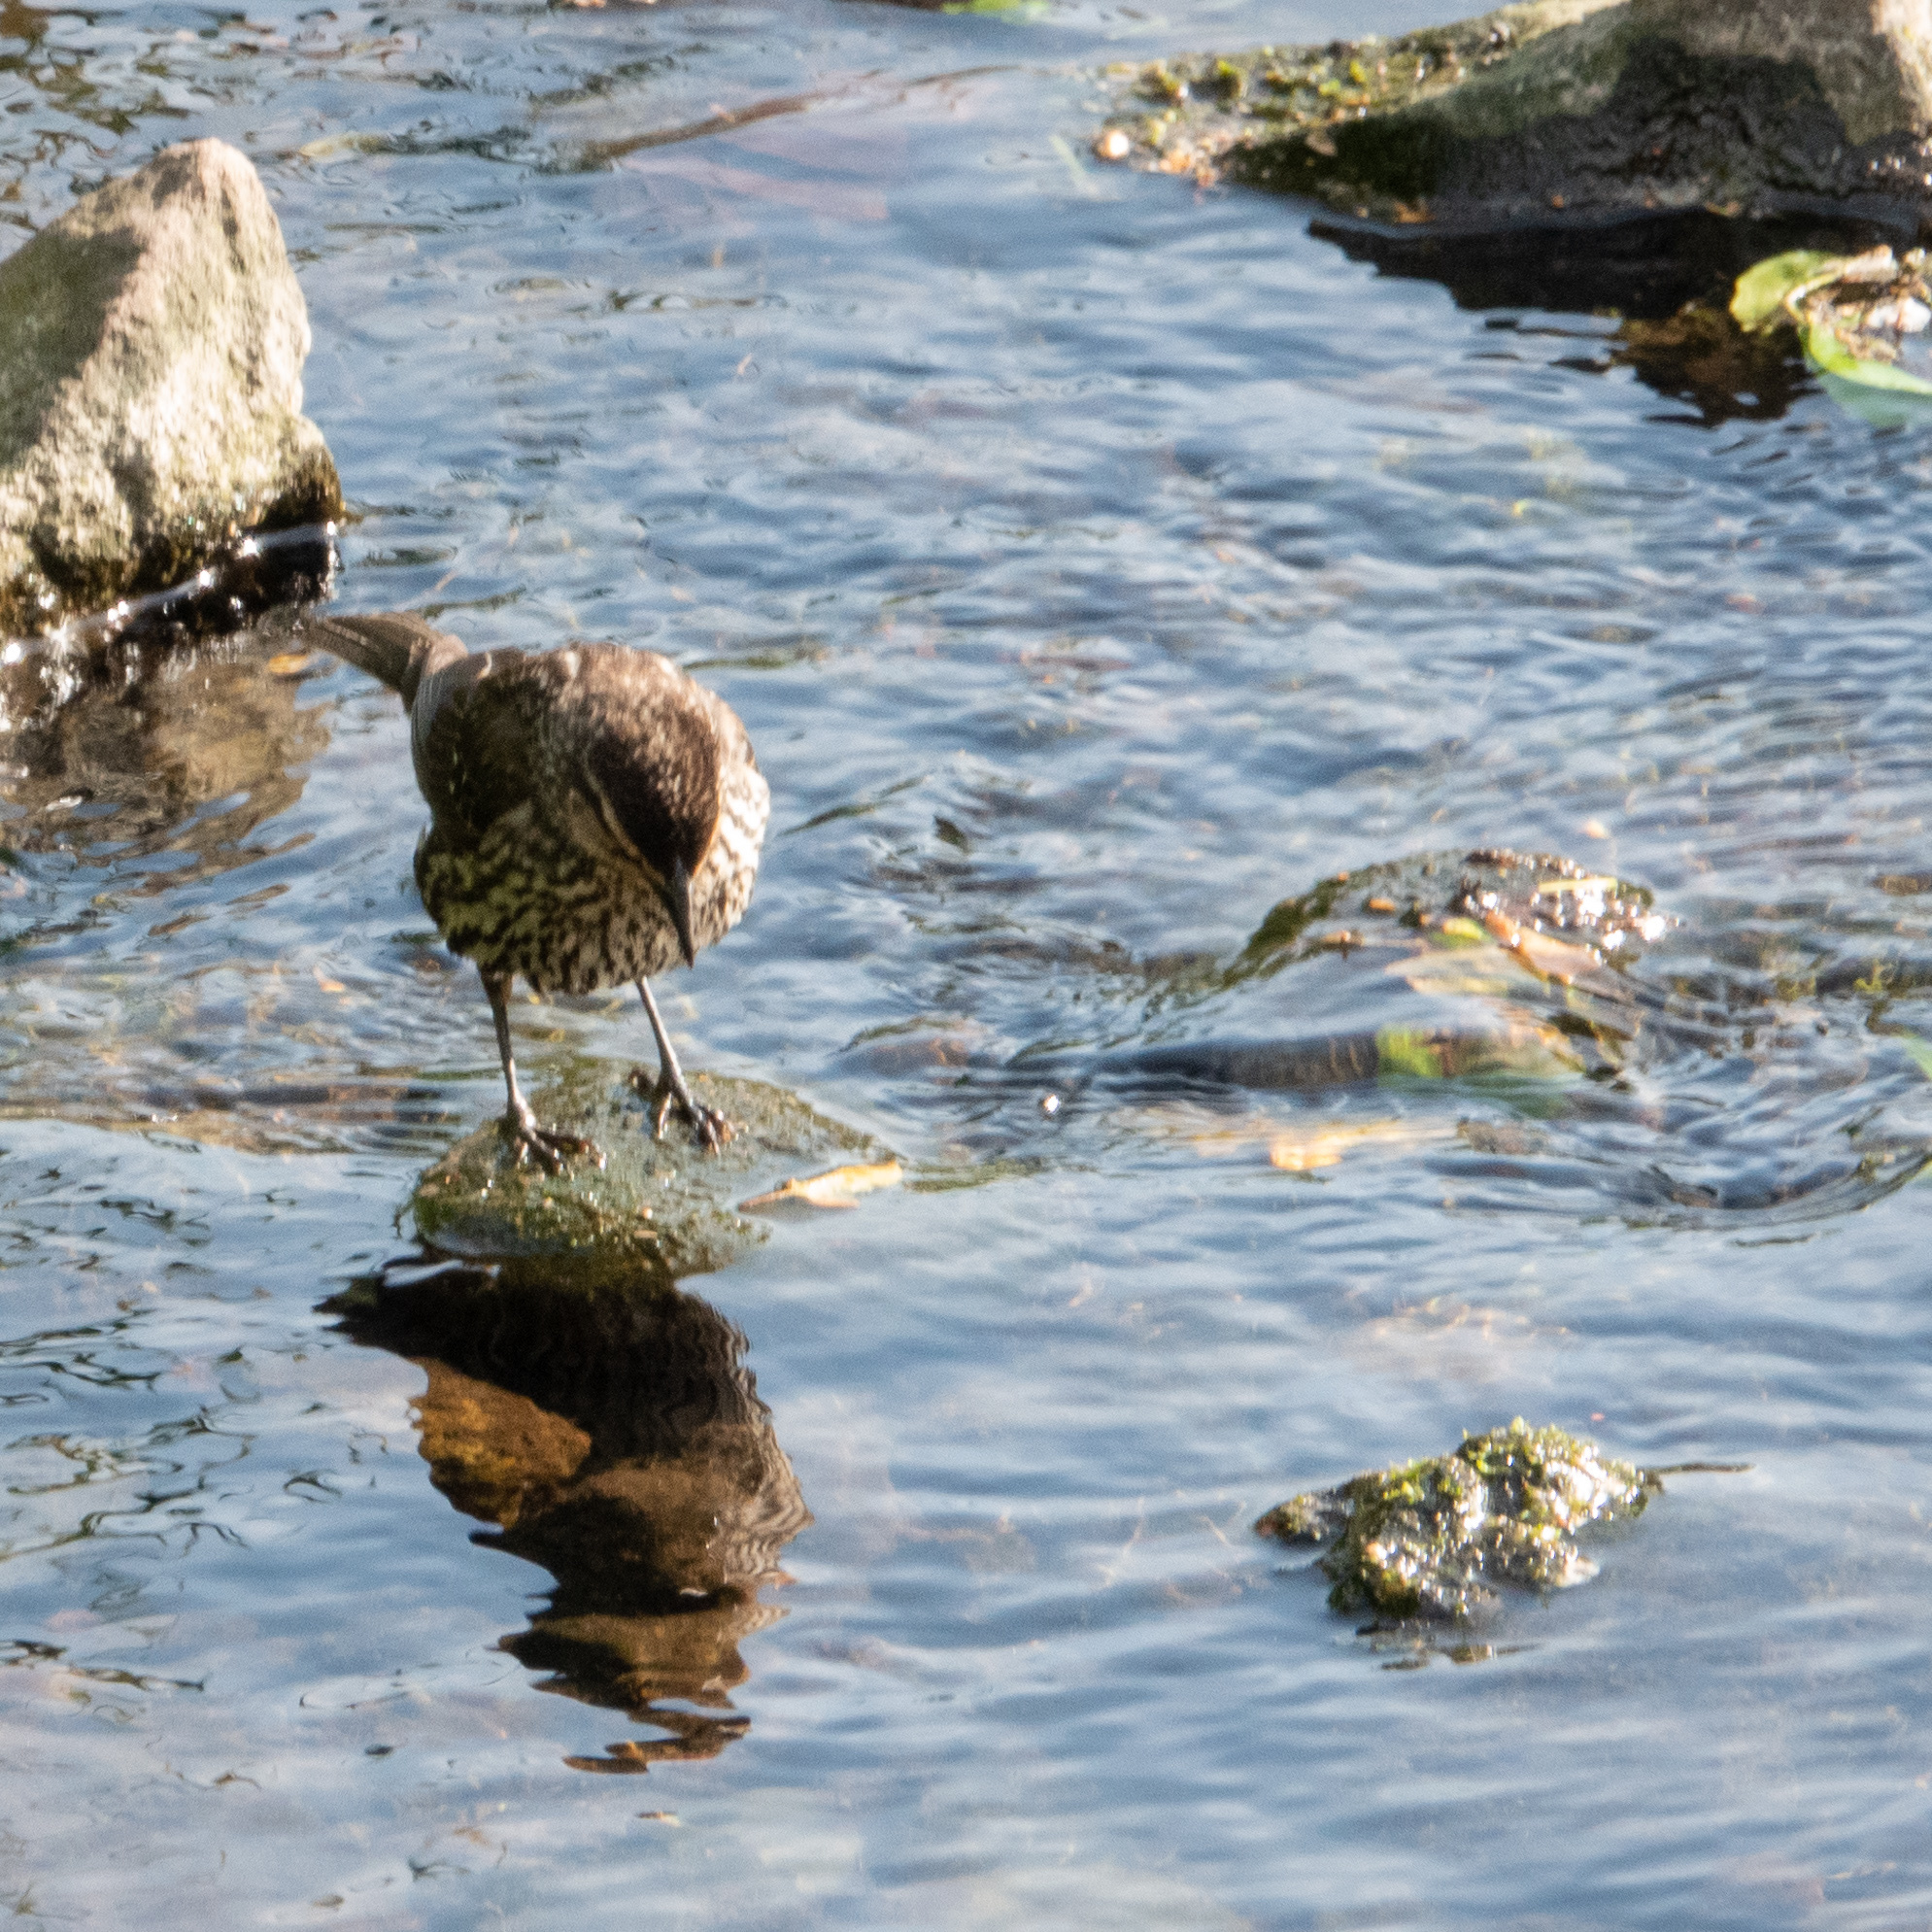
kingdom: Animalia
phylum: Chordata
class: Aves
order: Passeriformes
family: Icteridae
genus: Agelaius
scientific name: Agelaius phoeniceus
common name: Red-winged blackbird
